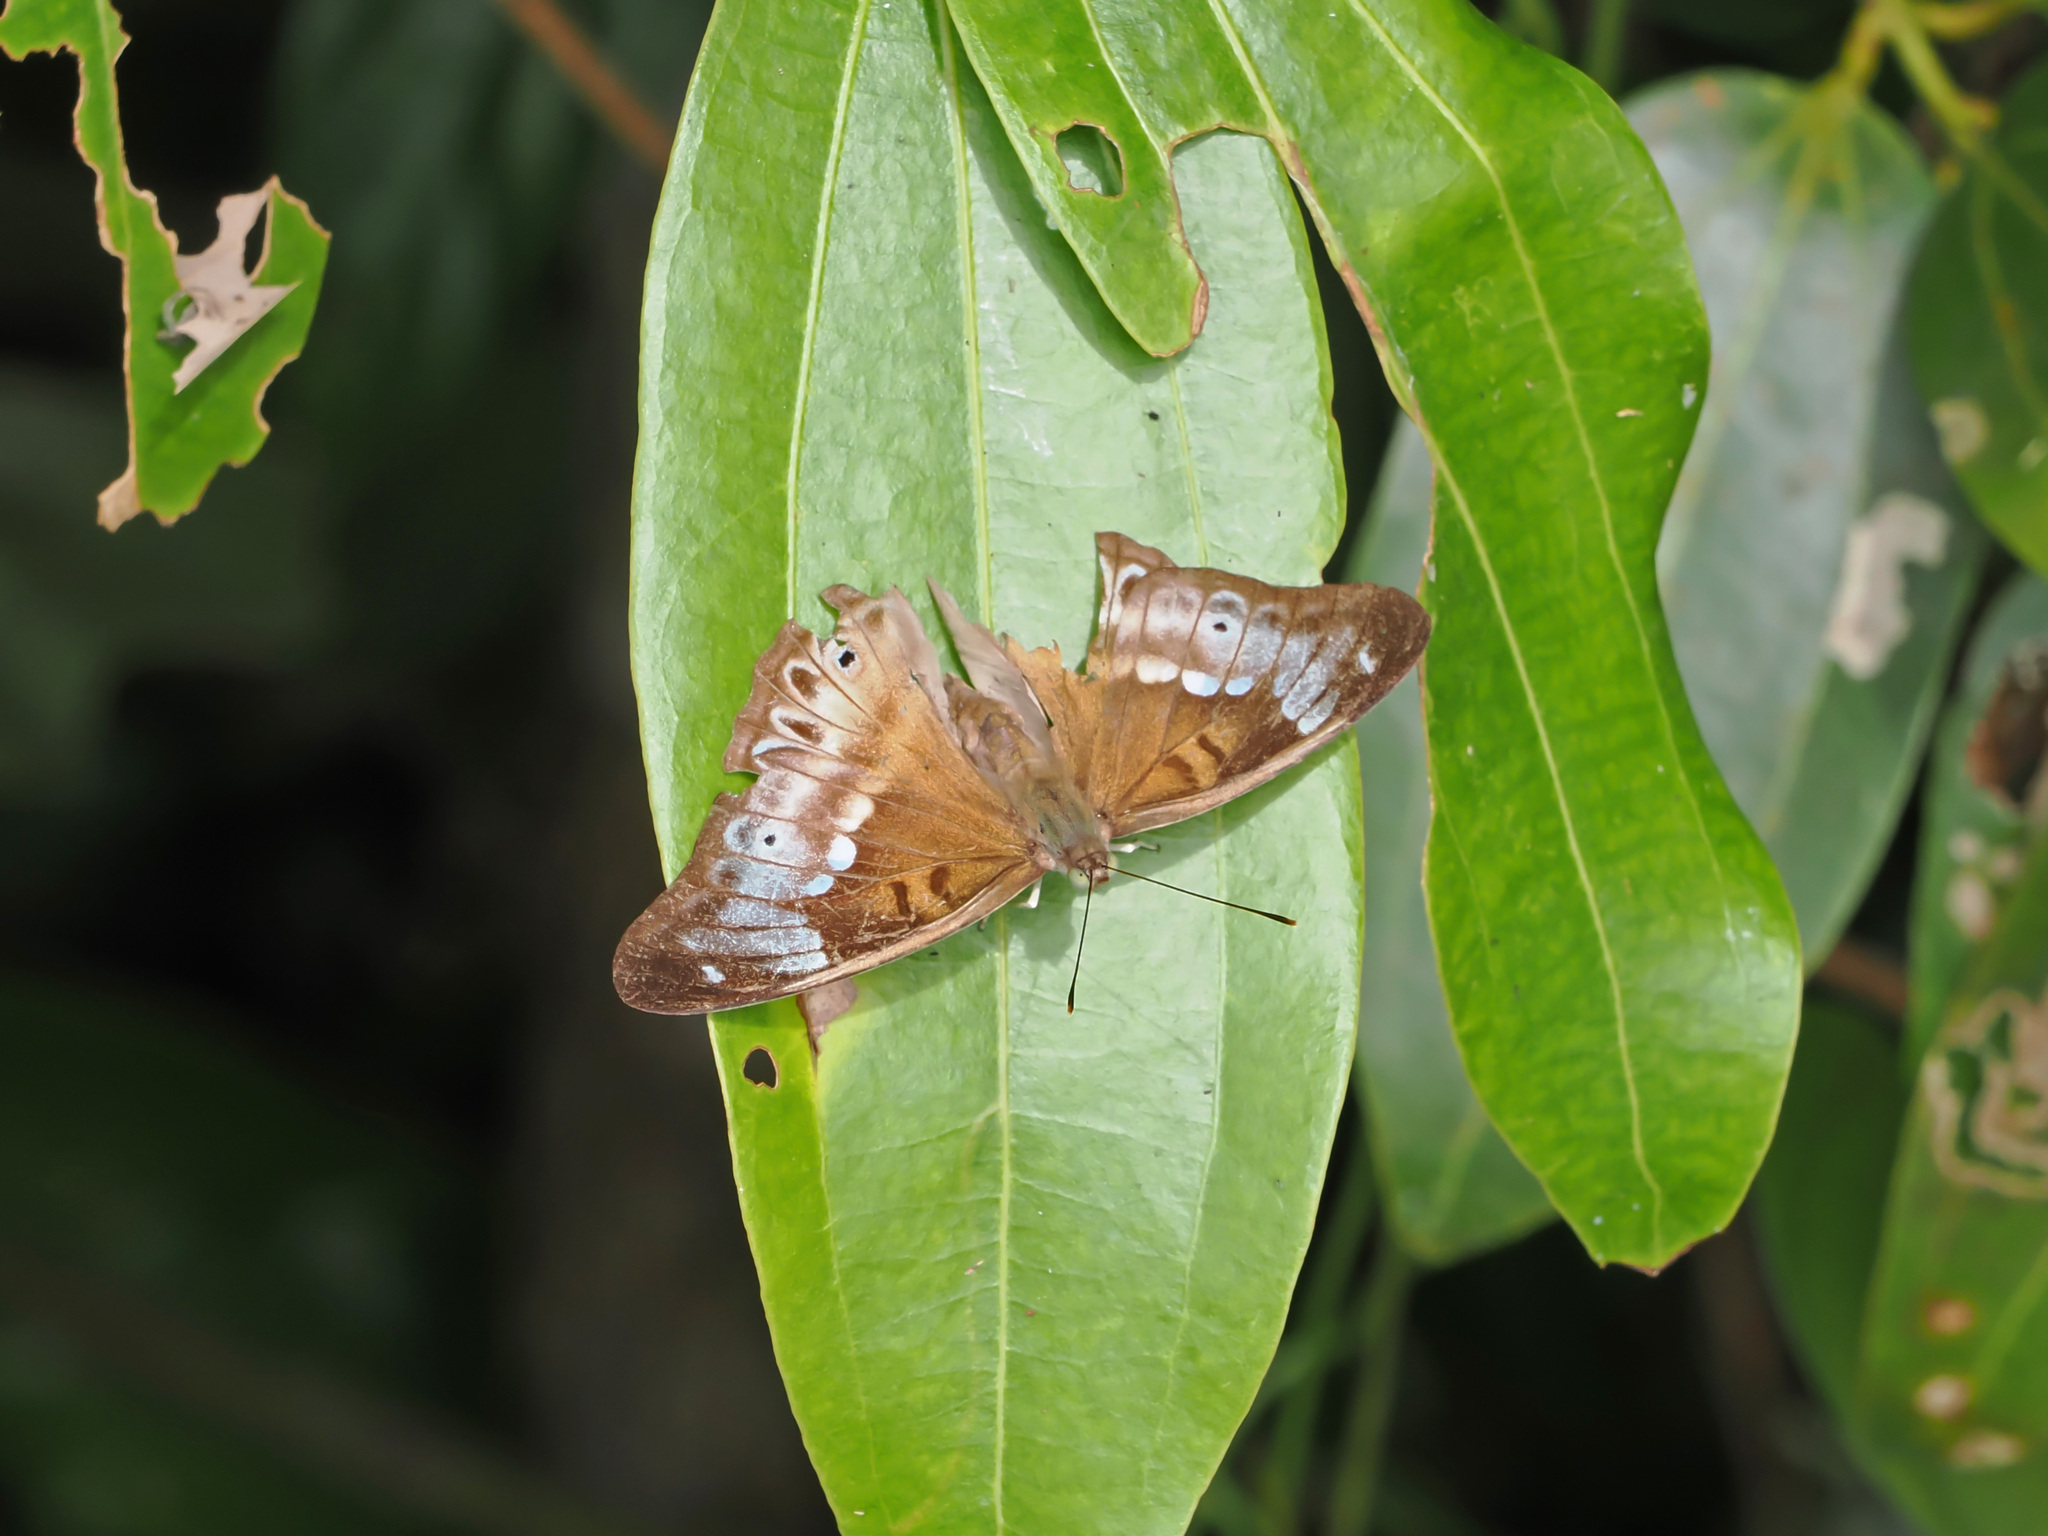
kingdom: Animalia
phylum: Arthropoda
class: Insecta
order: Lepidoptera
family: Nymphalidae
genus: Eulaceura
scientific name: Eulaceura osteria
